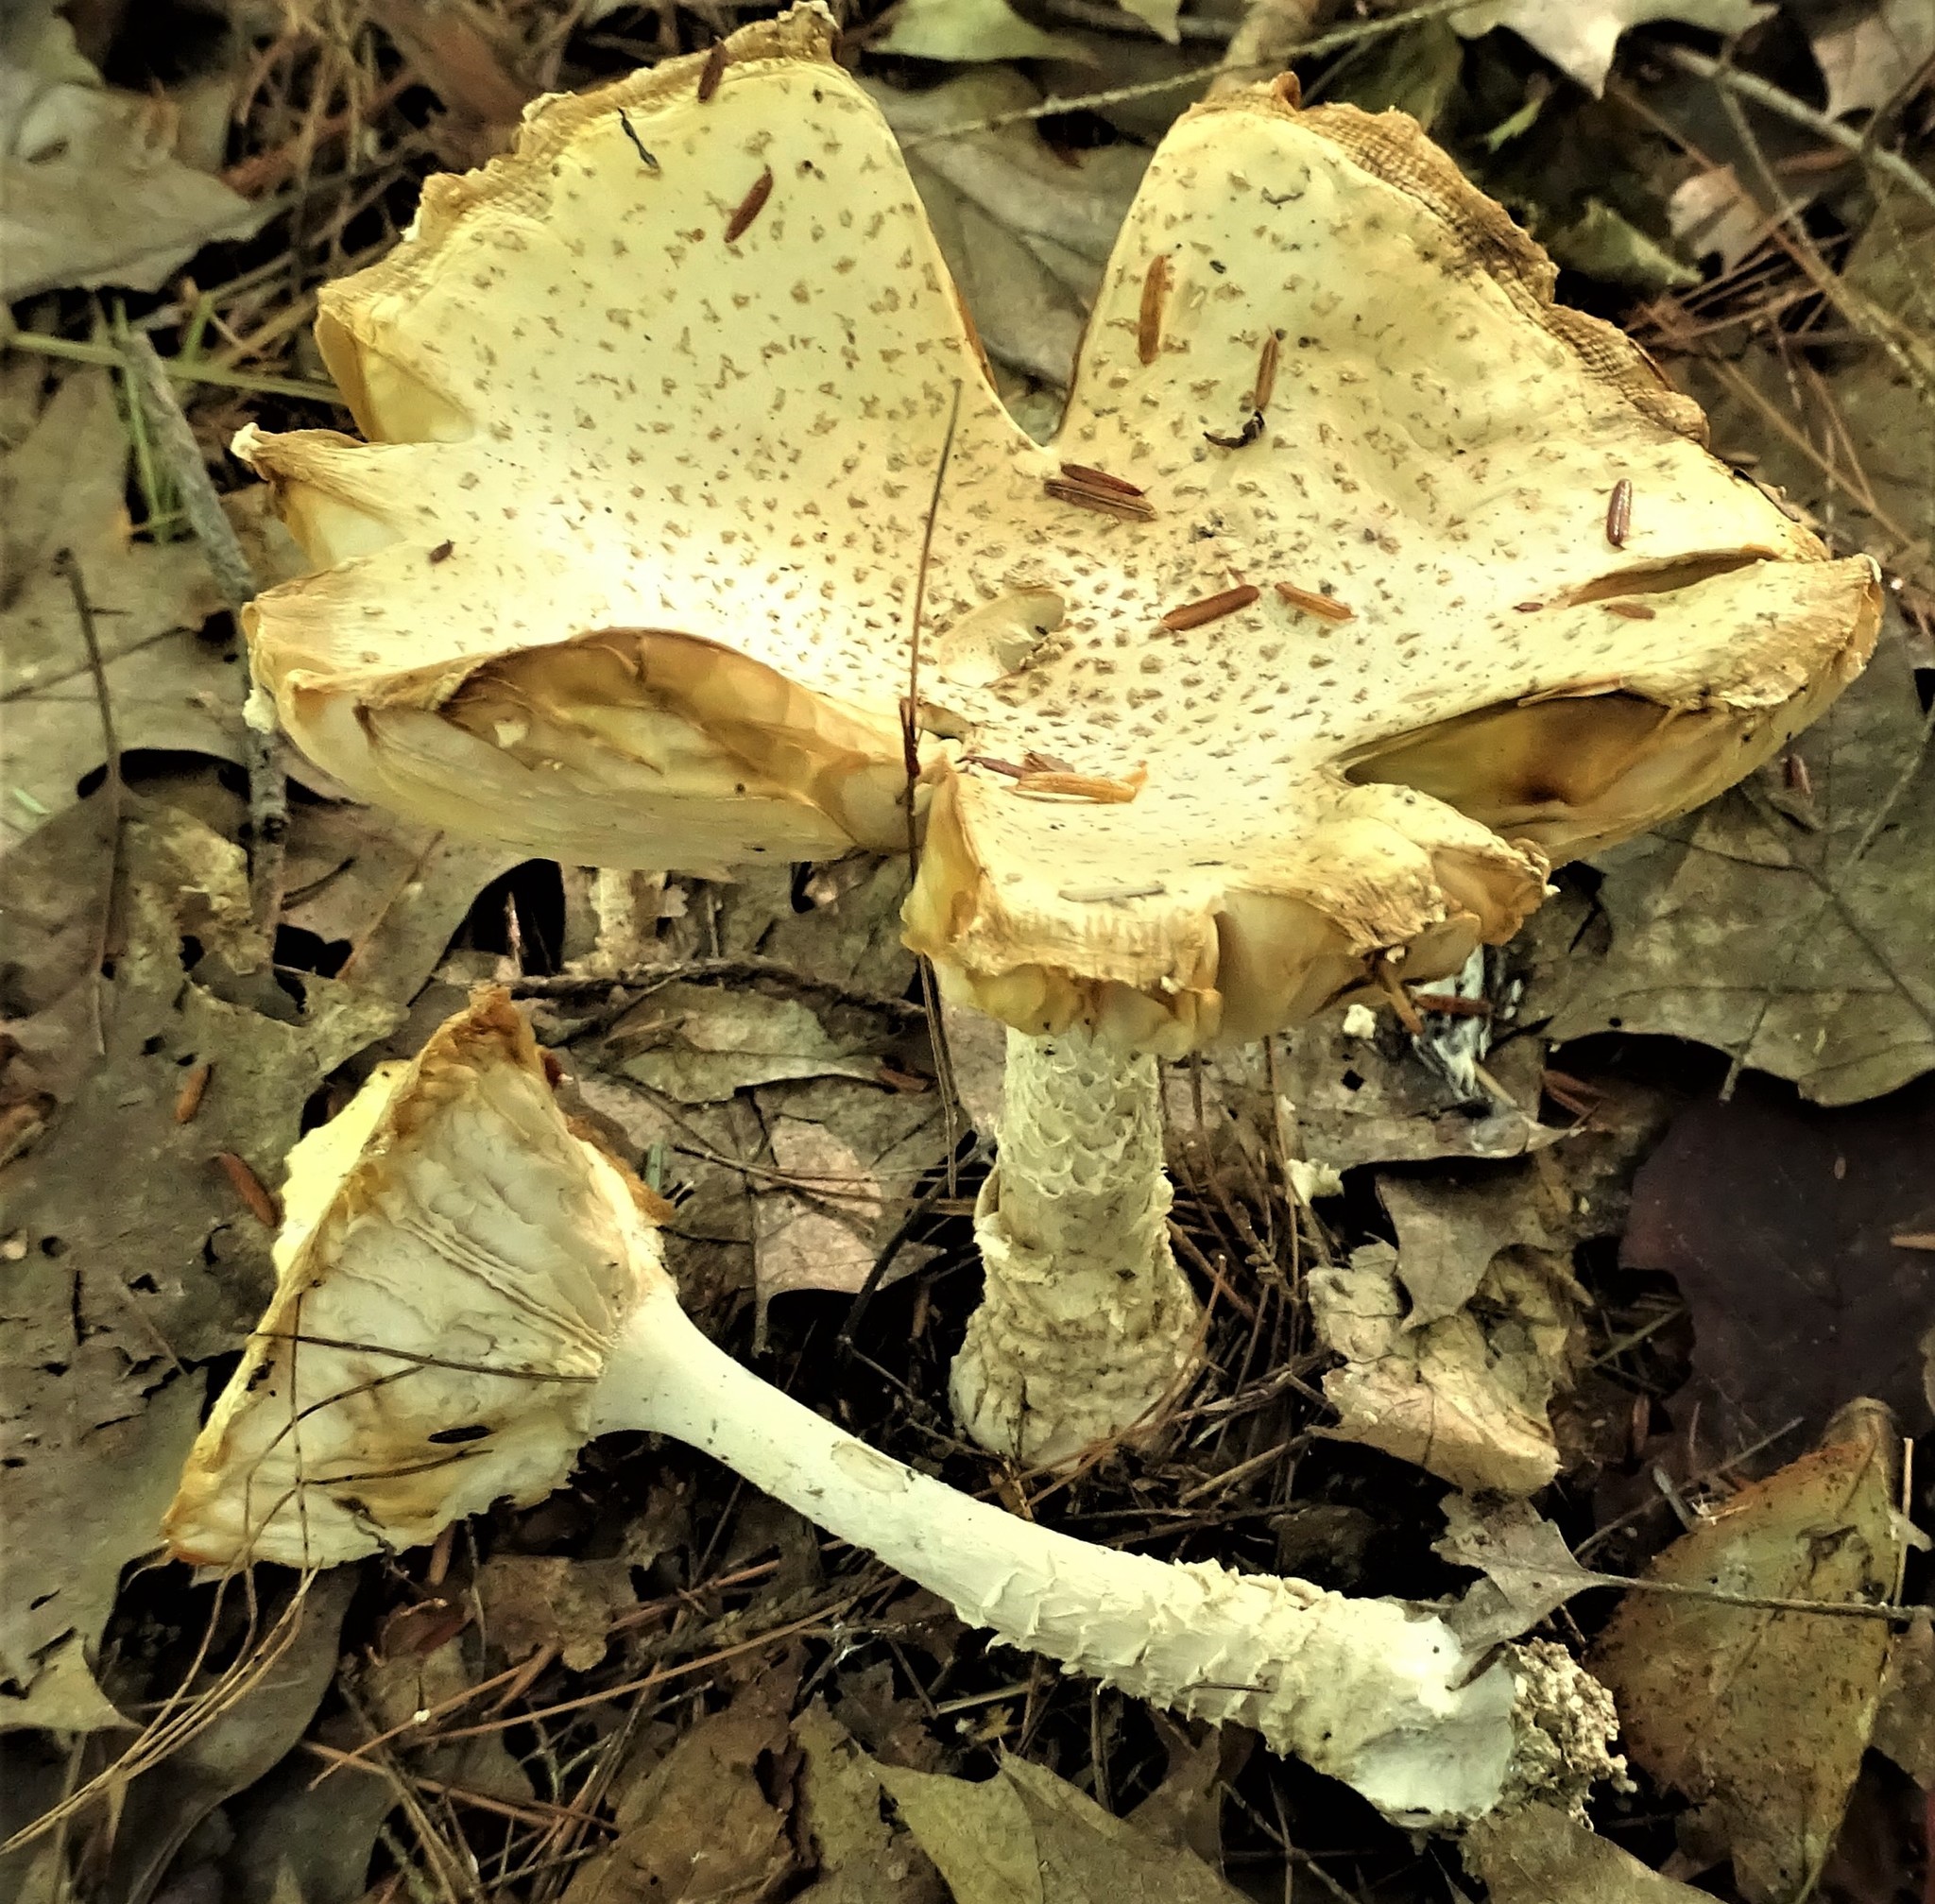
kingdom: Fungi
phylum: Basidiomycota
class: Agaricomycetes
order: Agaricales
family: Amanitaceae
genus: Amanita
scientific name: Amanita muscaria
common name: Fly agaric
